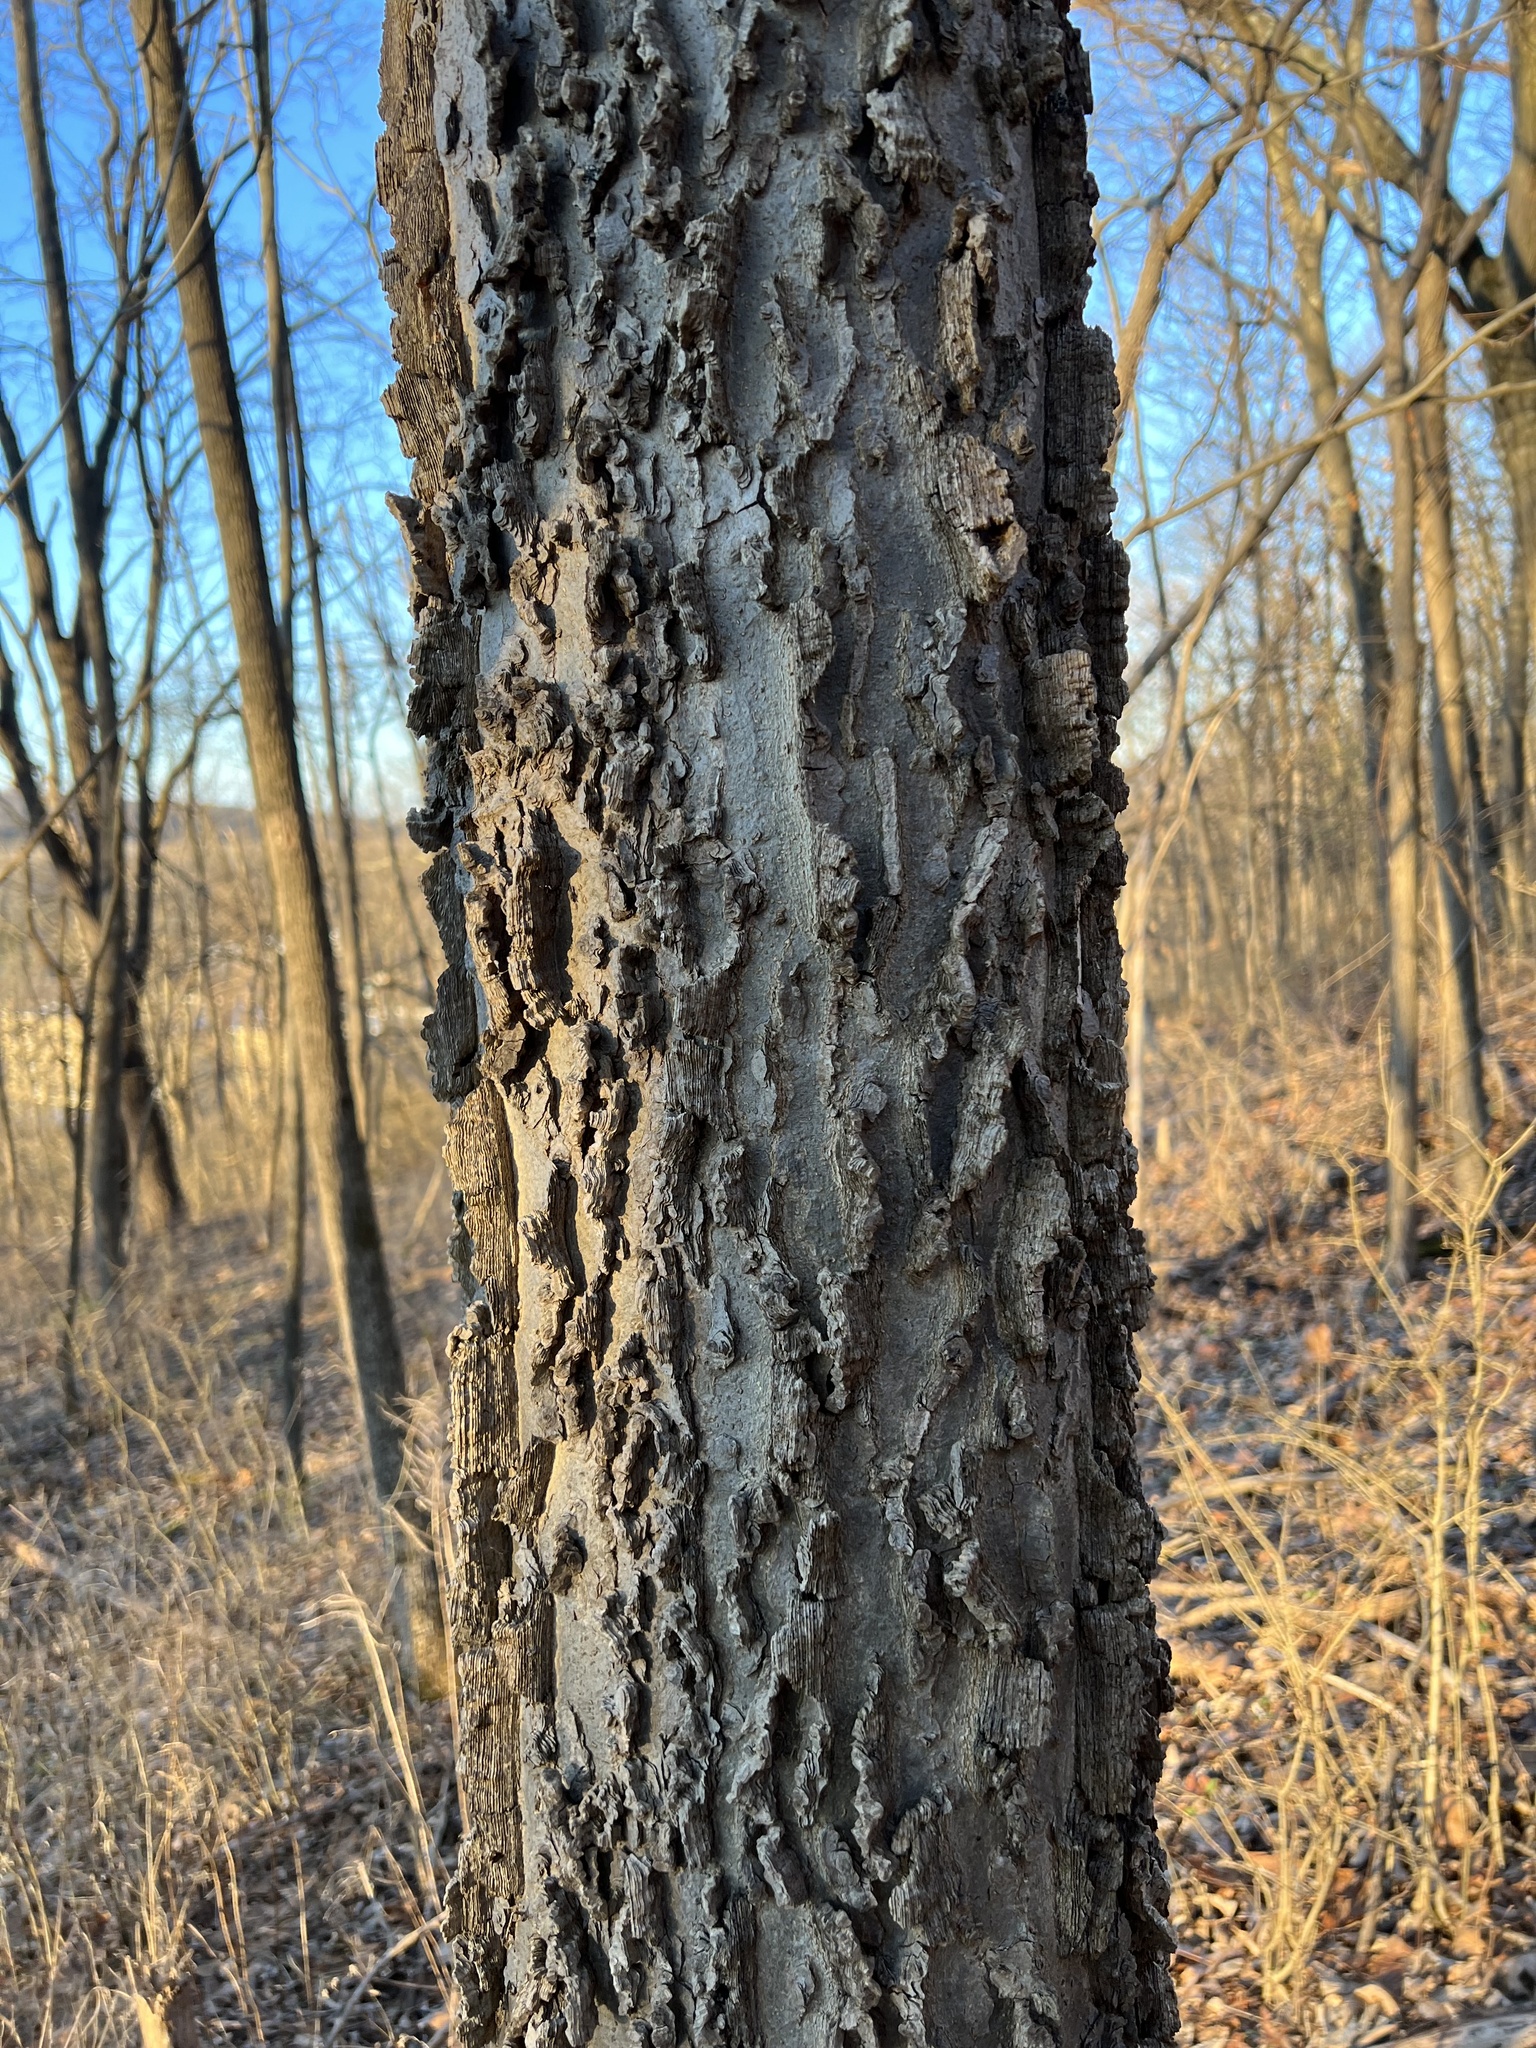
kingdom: Plantae
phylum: Tracheophyta
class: Magnoliopsida
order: Rosales
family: Cannabaceae
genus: Celtis
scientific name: Celtis occidentalis
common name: Common hackberry
